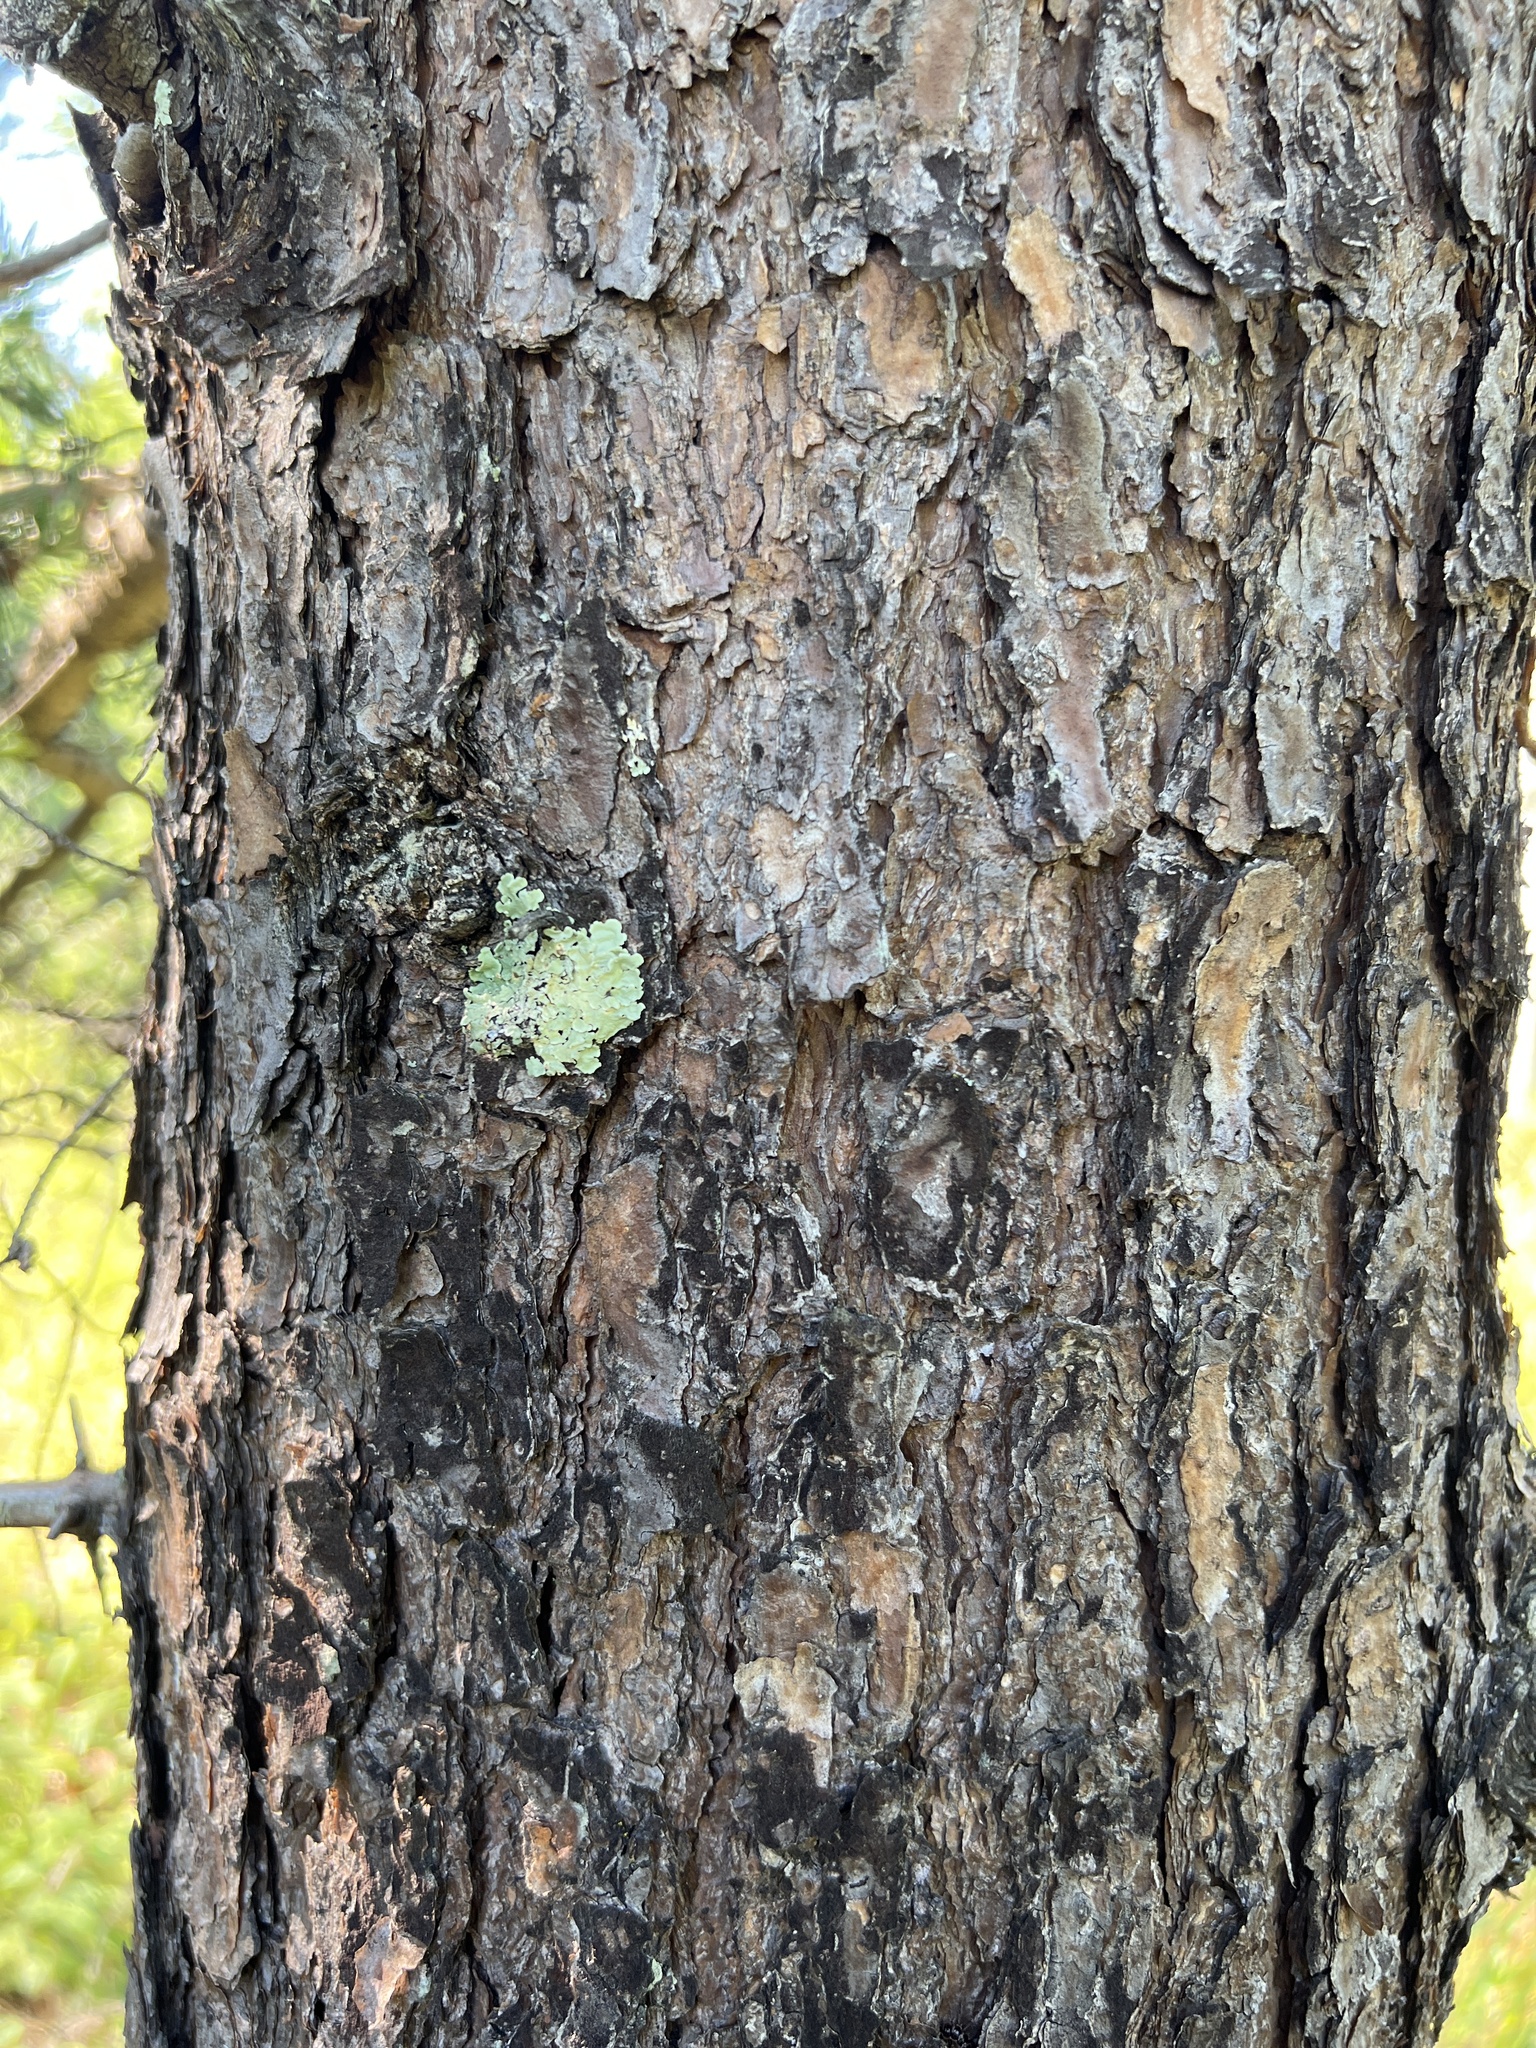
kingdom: Plantae
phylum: Tracheophyta
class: Pinopsida
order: Pinales
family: Pinaceae
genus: Pinus
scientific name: Pinus virginiana
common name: Scrub pine
